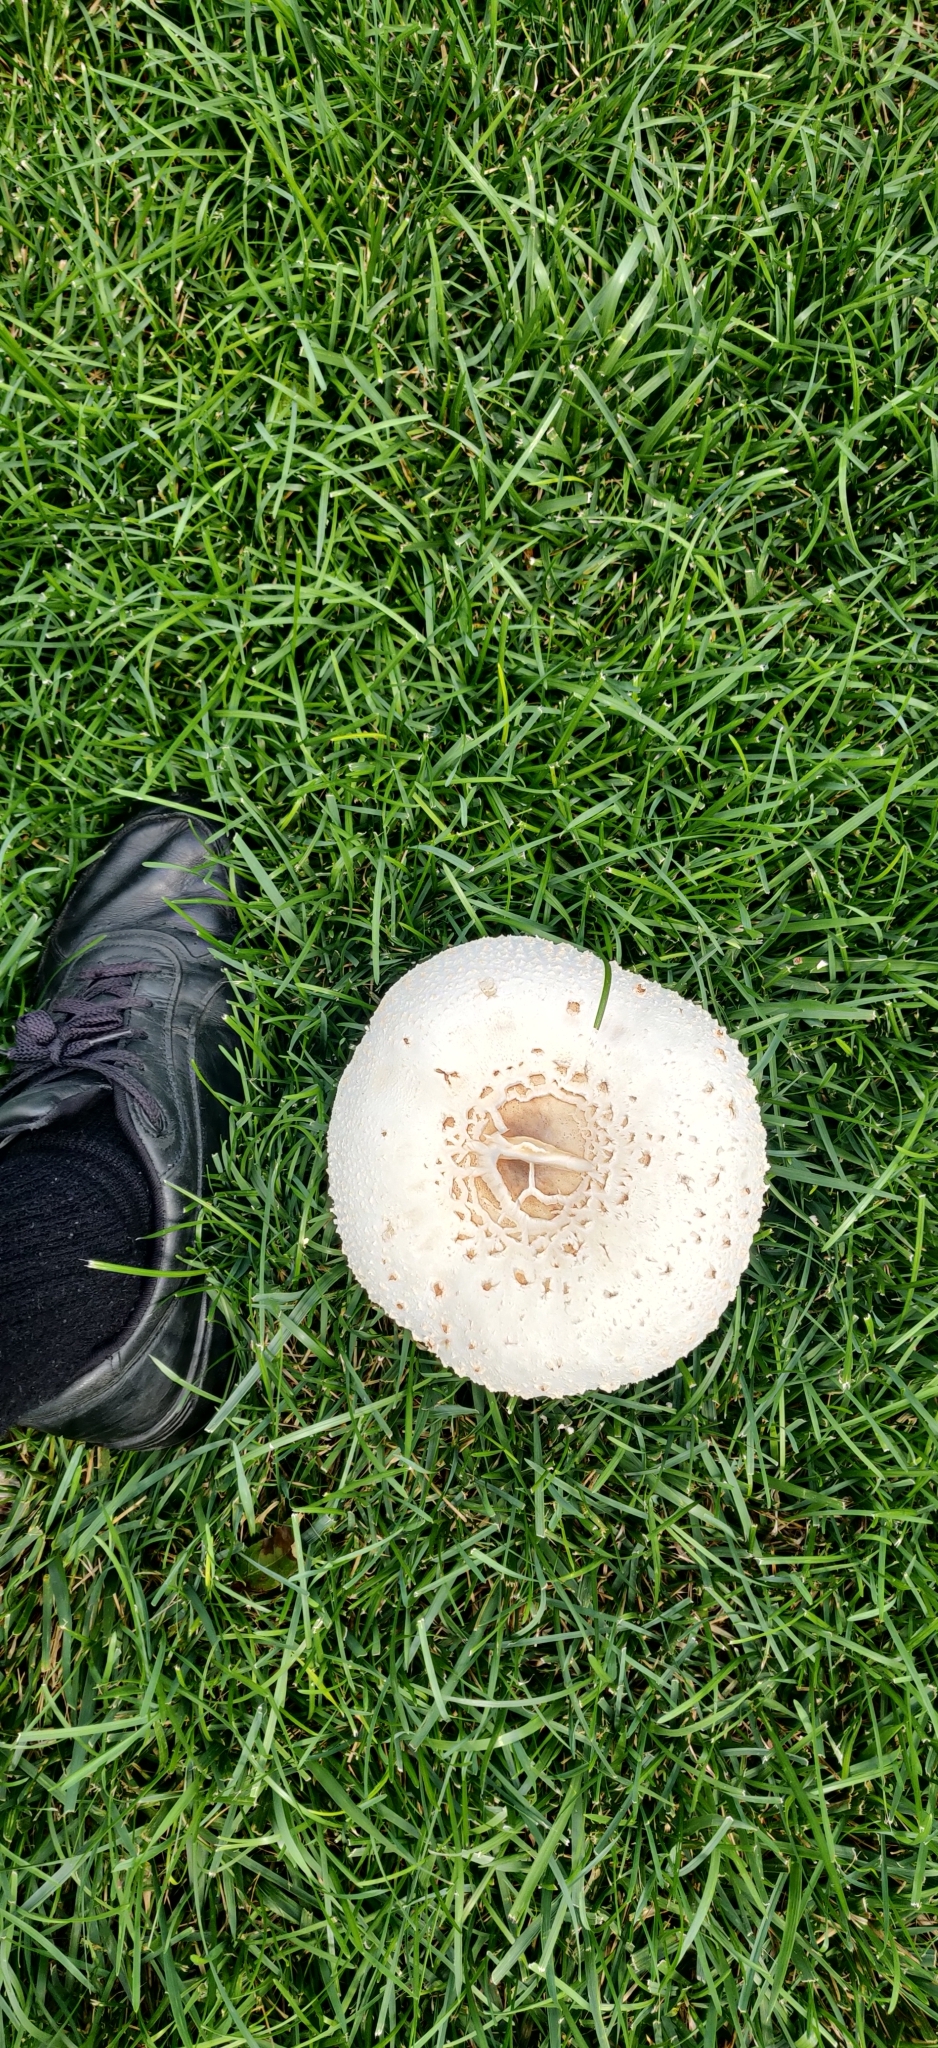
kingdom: Fungi
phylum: Basidiomycota
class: Agaricomycetes
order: Agaricales
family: Agaricaceae
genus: Chlorophyllum
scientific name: Chlorophyllum molybdites
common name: False parasol
